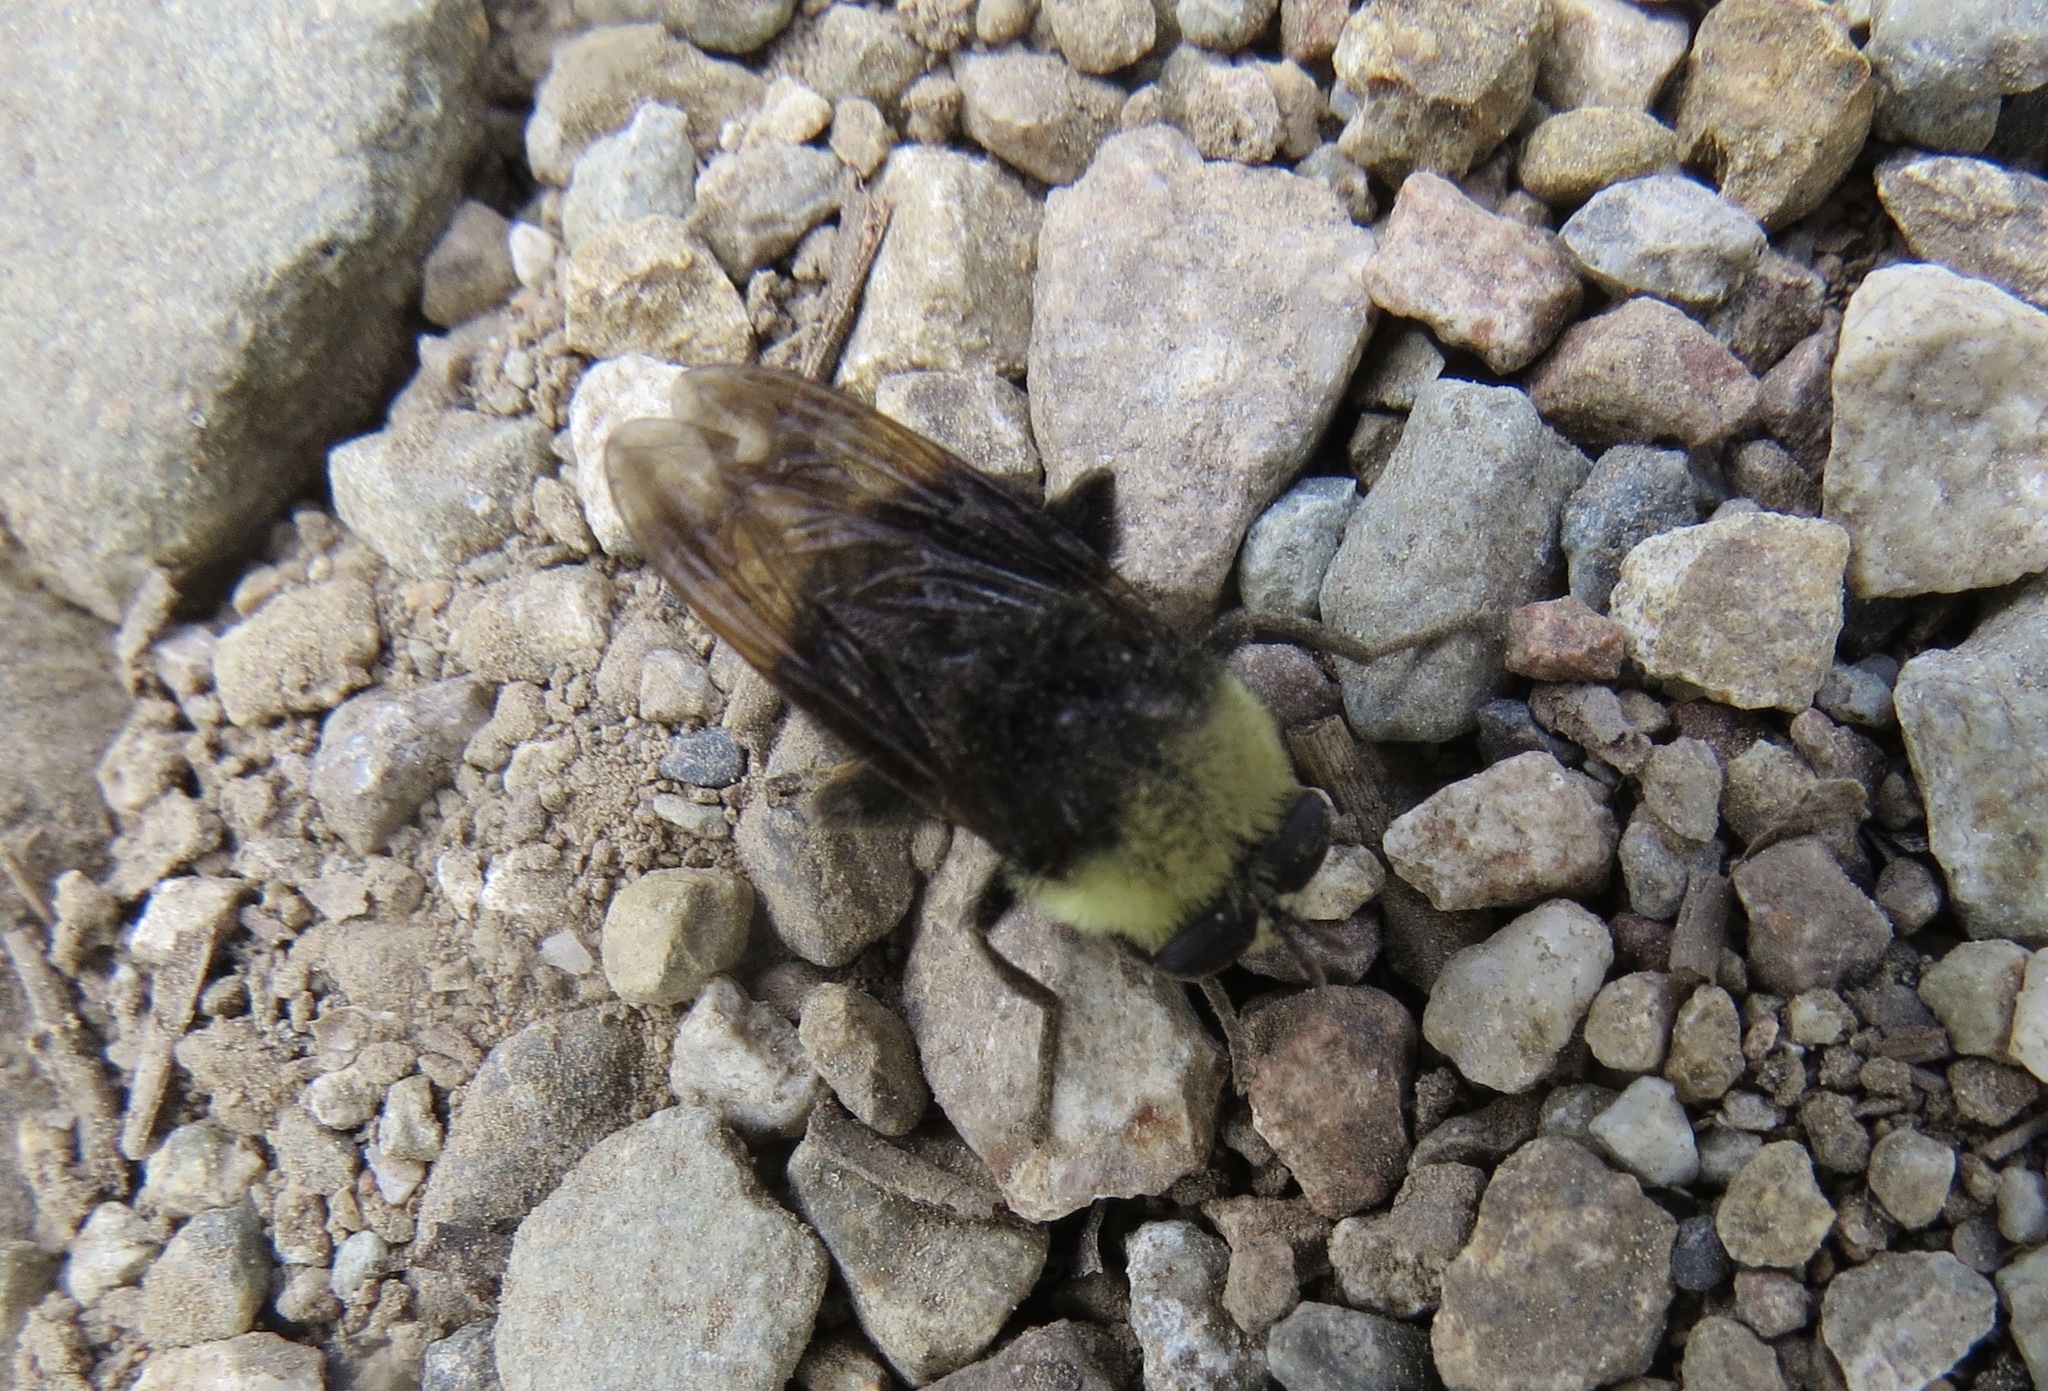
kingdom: Animalia
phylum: Arthropoda
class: Insecta
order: Diptera
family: Syrphidae
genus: Criorhina
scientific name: Criorhina coquilletti
